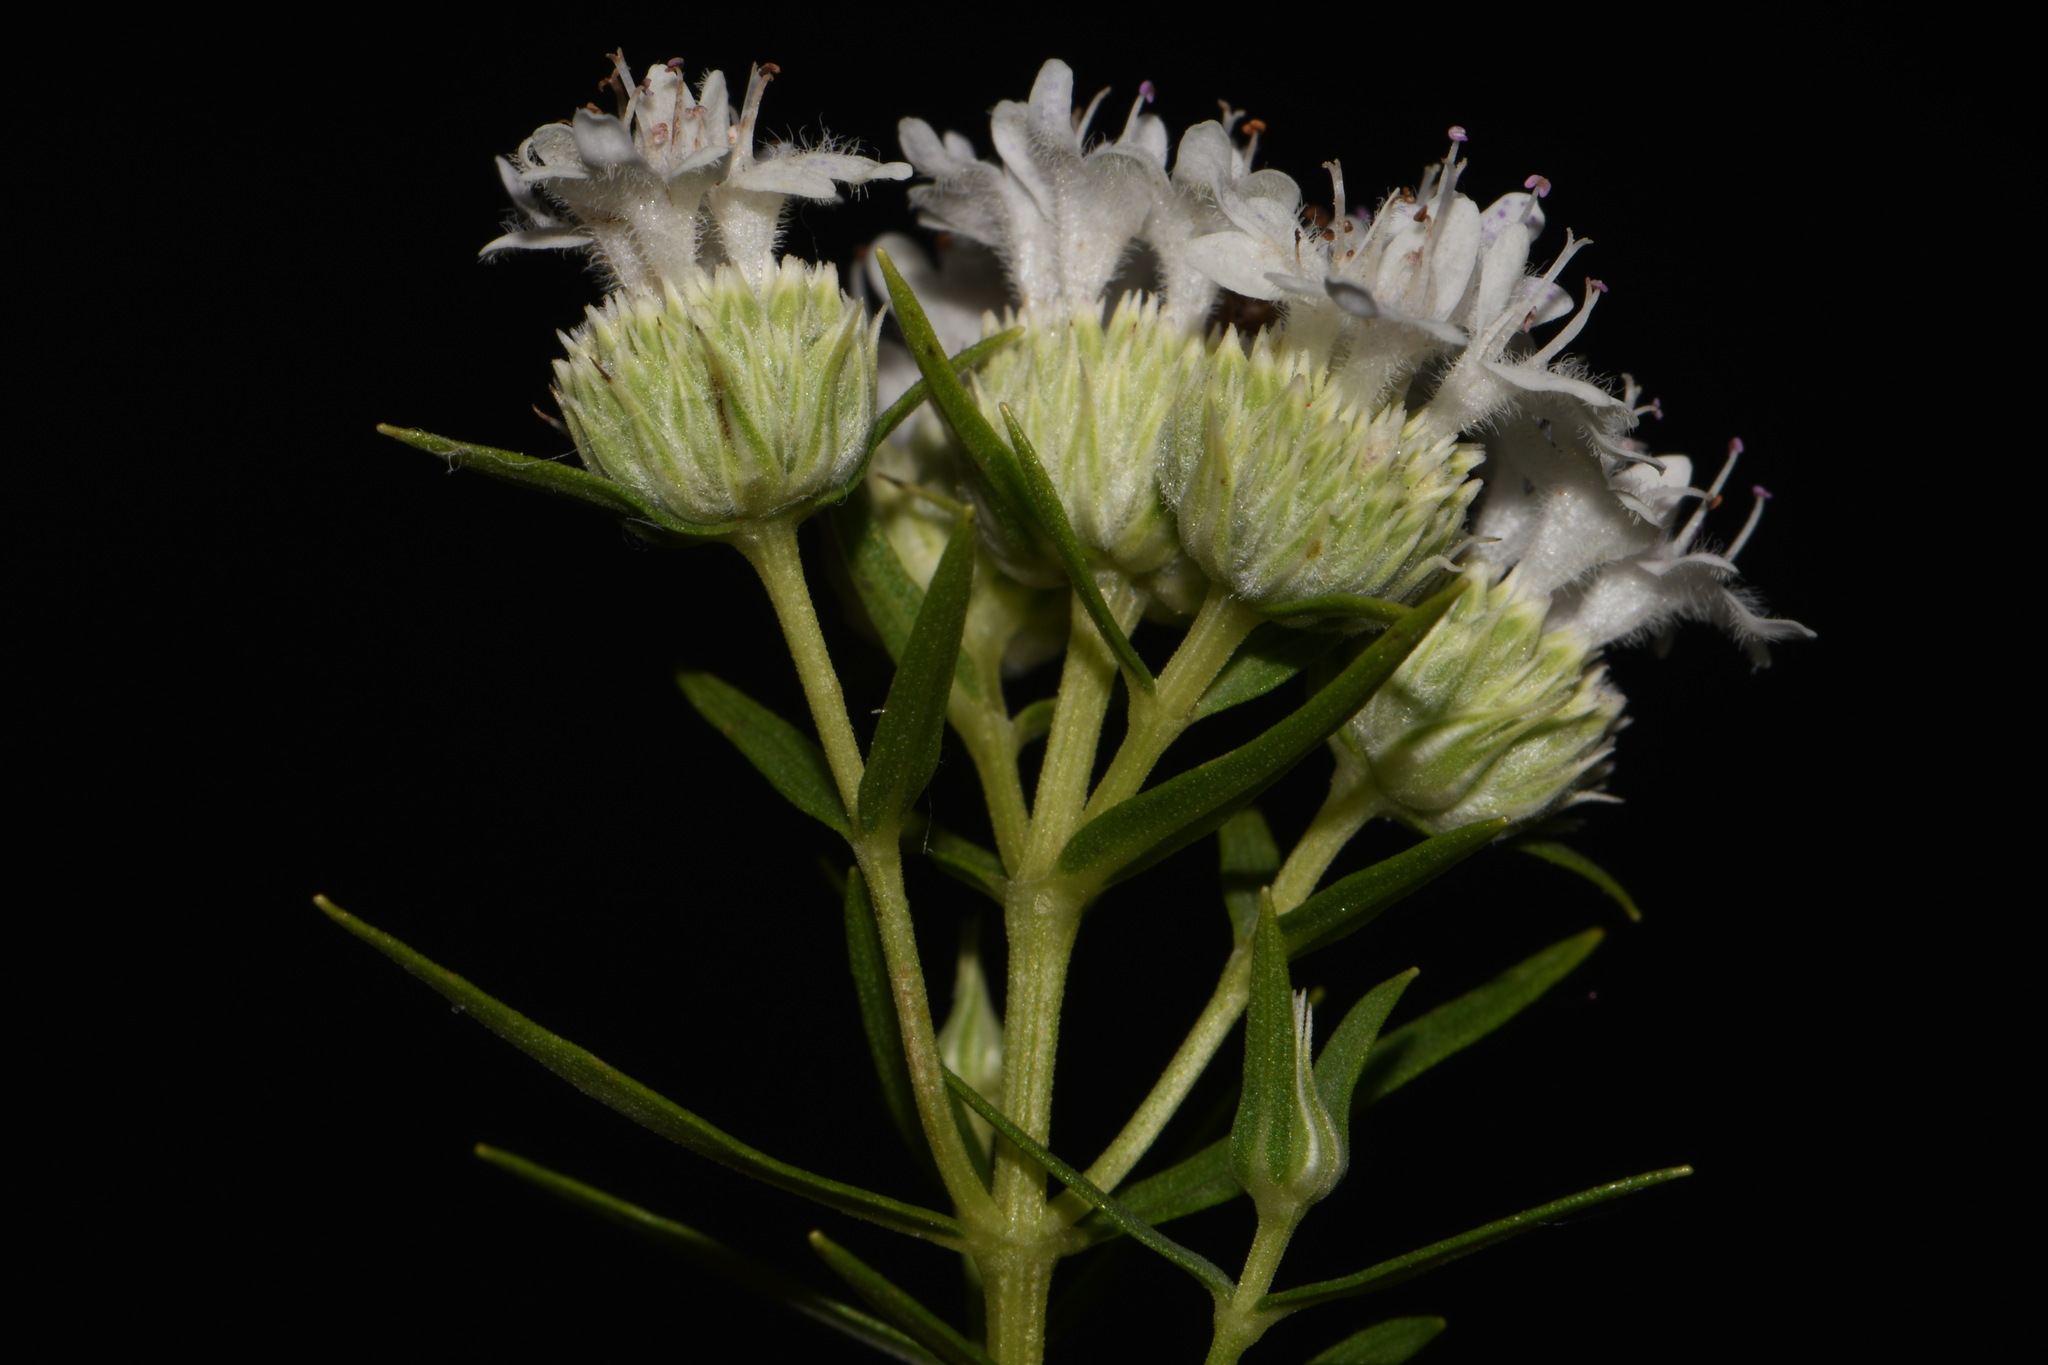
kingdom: Plantae
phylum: Tracheophyta
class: Magnoliopsida
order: Lamiales
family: Lamiaceae
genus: Pycnanthemum
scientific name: Pycnanthemum tenuifolium
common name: Narrow-leaf mountain-mint
